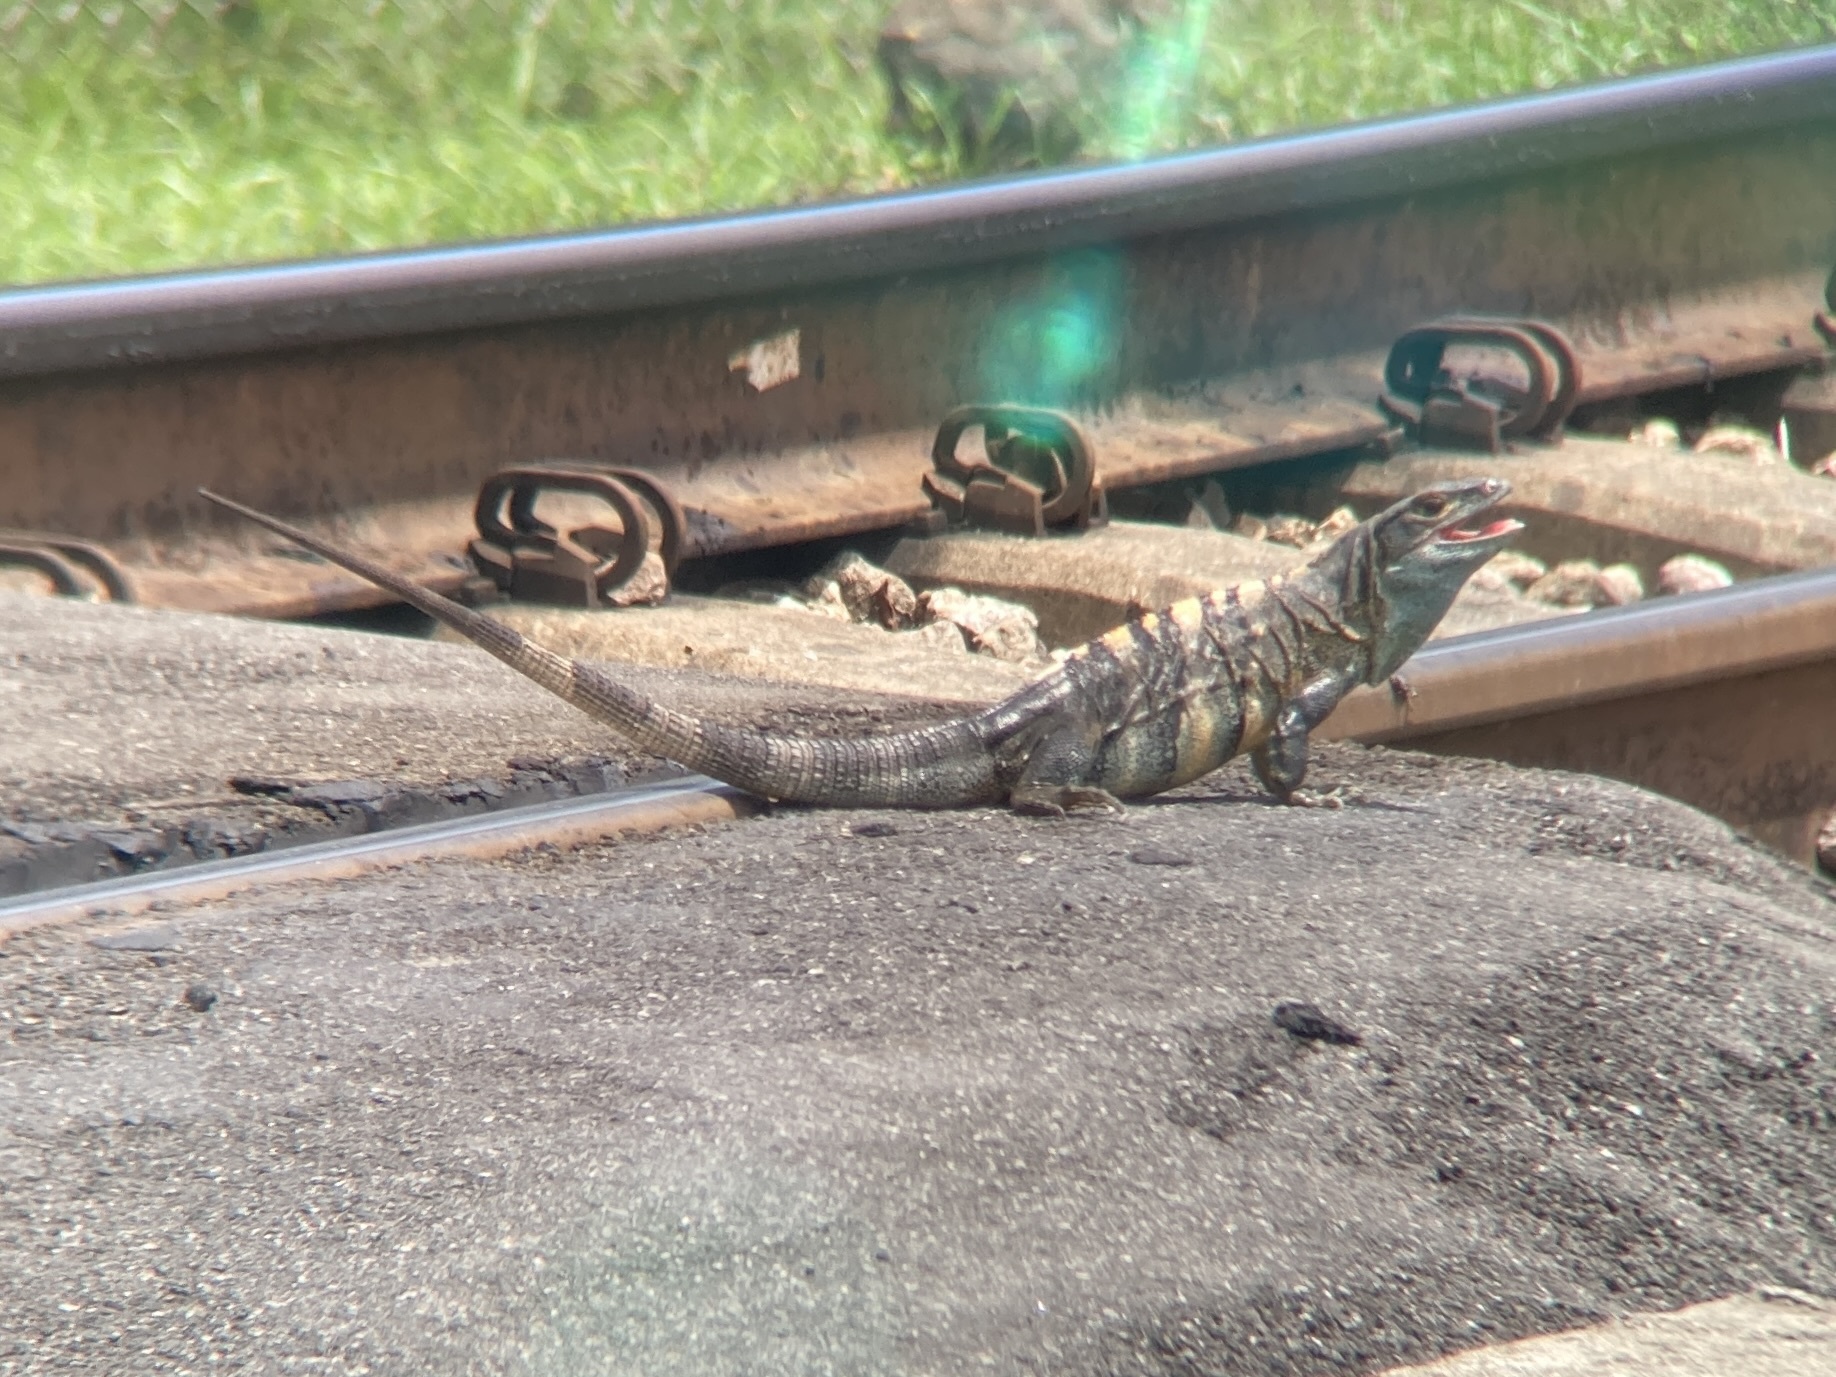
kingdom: Animalia
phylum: Chordata
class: Squamata
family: Iguanidae
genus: Ctenosaura
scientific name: Ctenosaura similis
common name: Black spiny-tailed iguana
